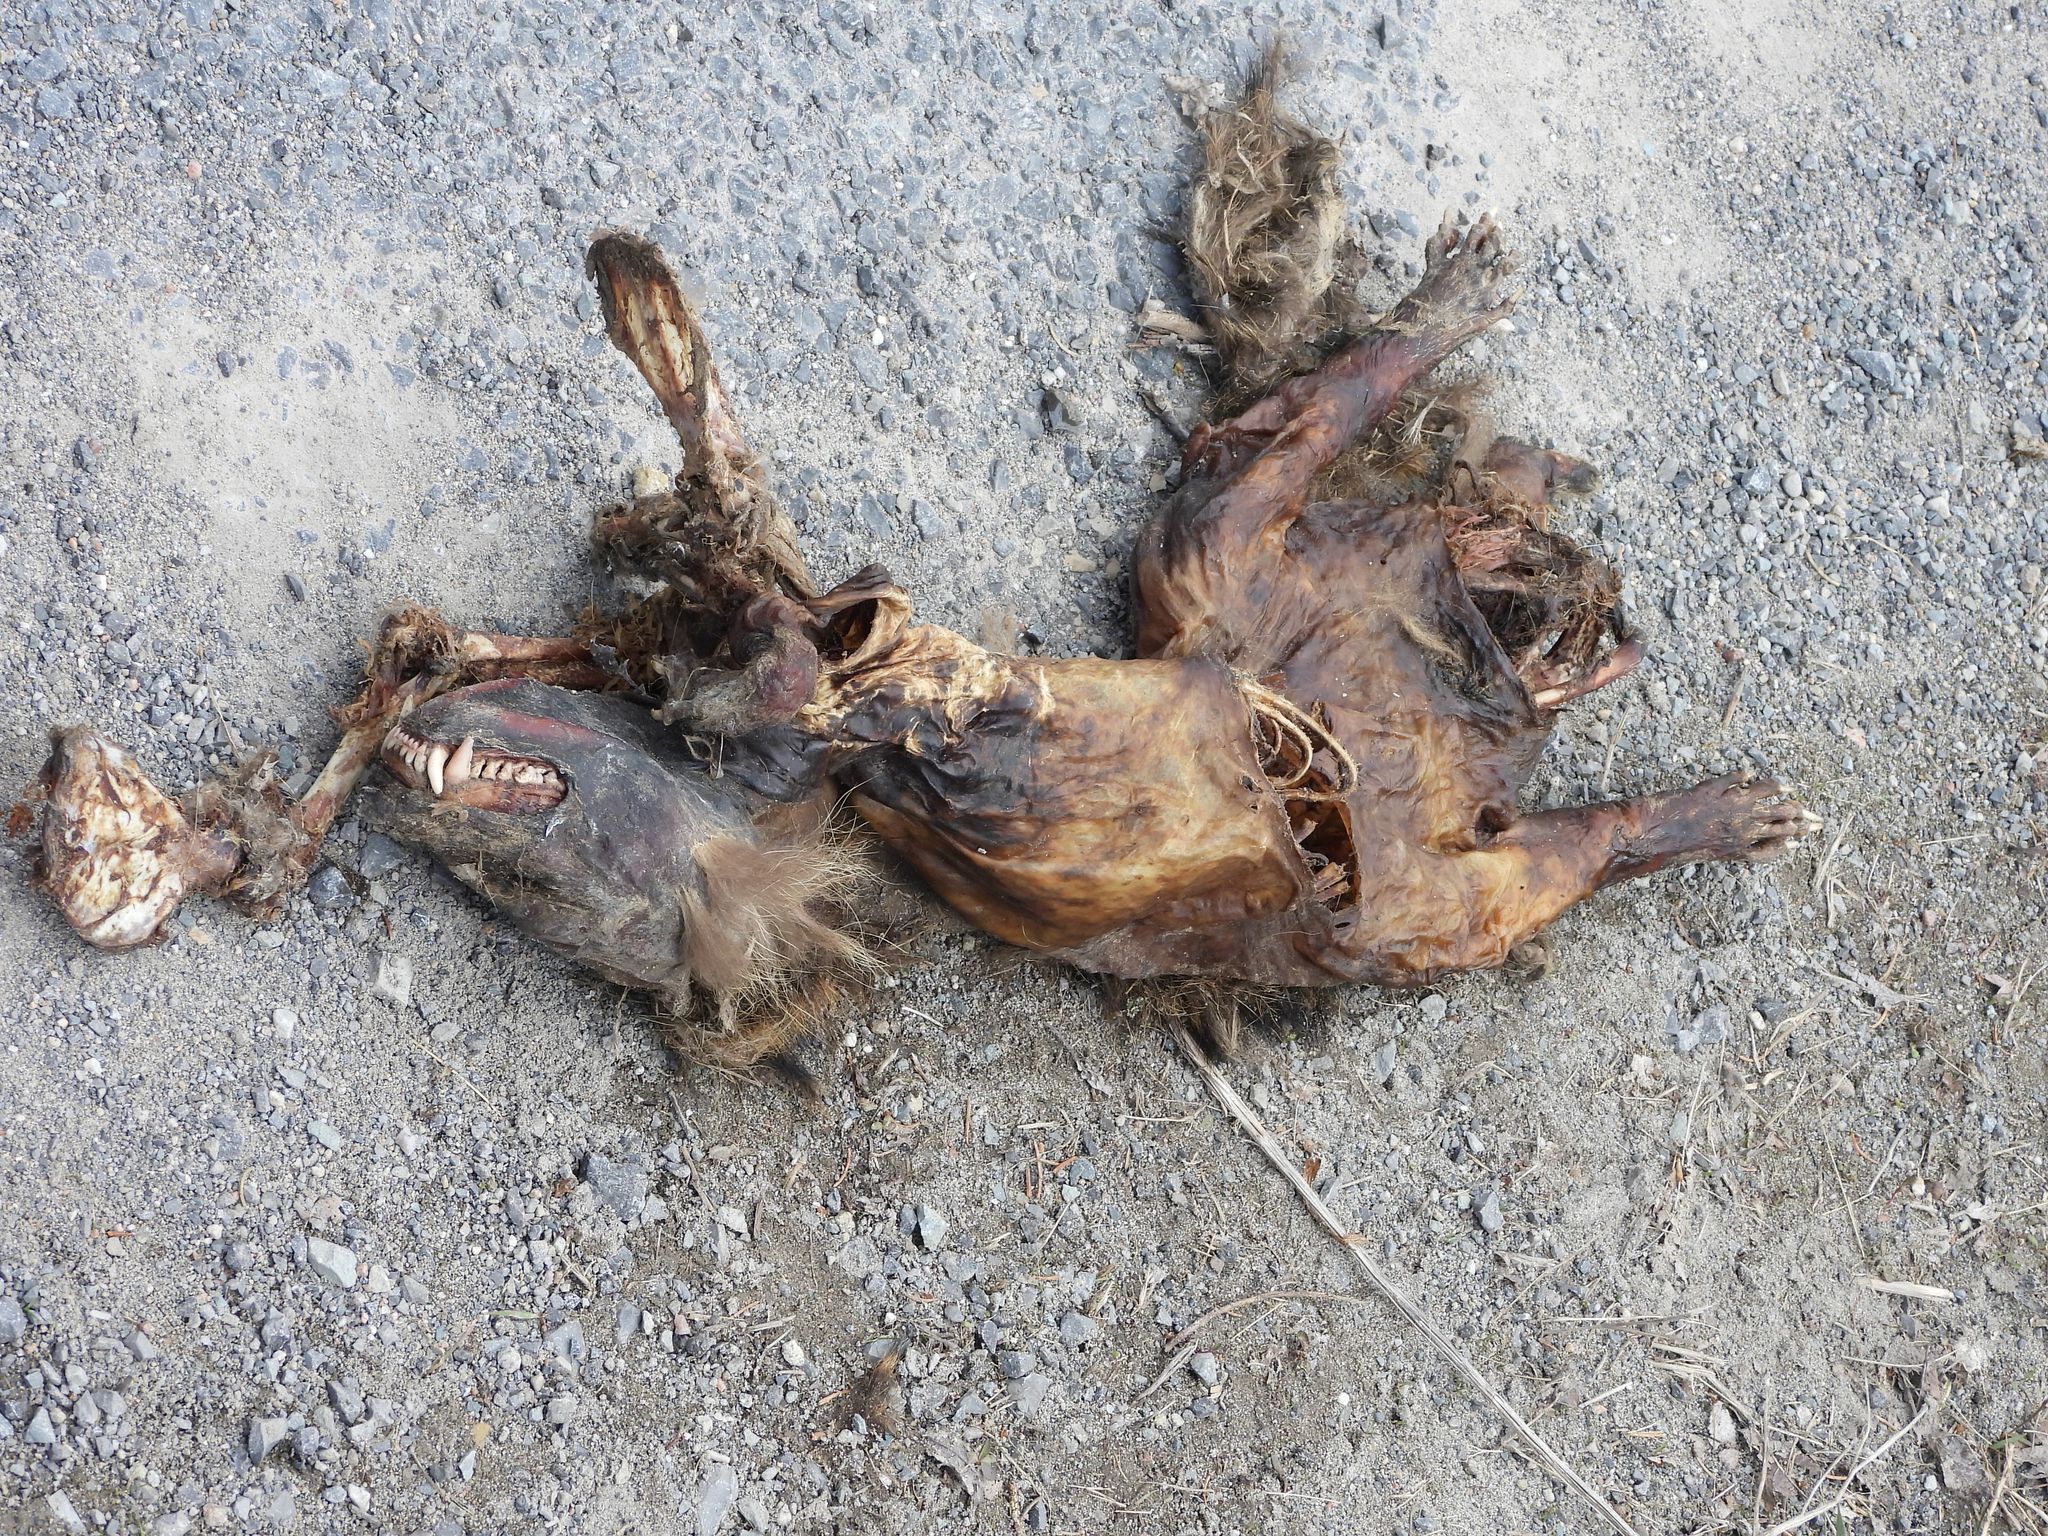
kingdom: Animalia
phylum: Chordata
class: Mammalia
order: Carnivora
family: Procyonidae
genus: Procyon
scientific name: Procyon lotor
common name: Raccoon
